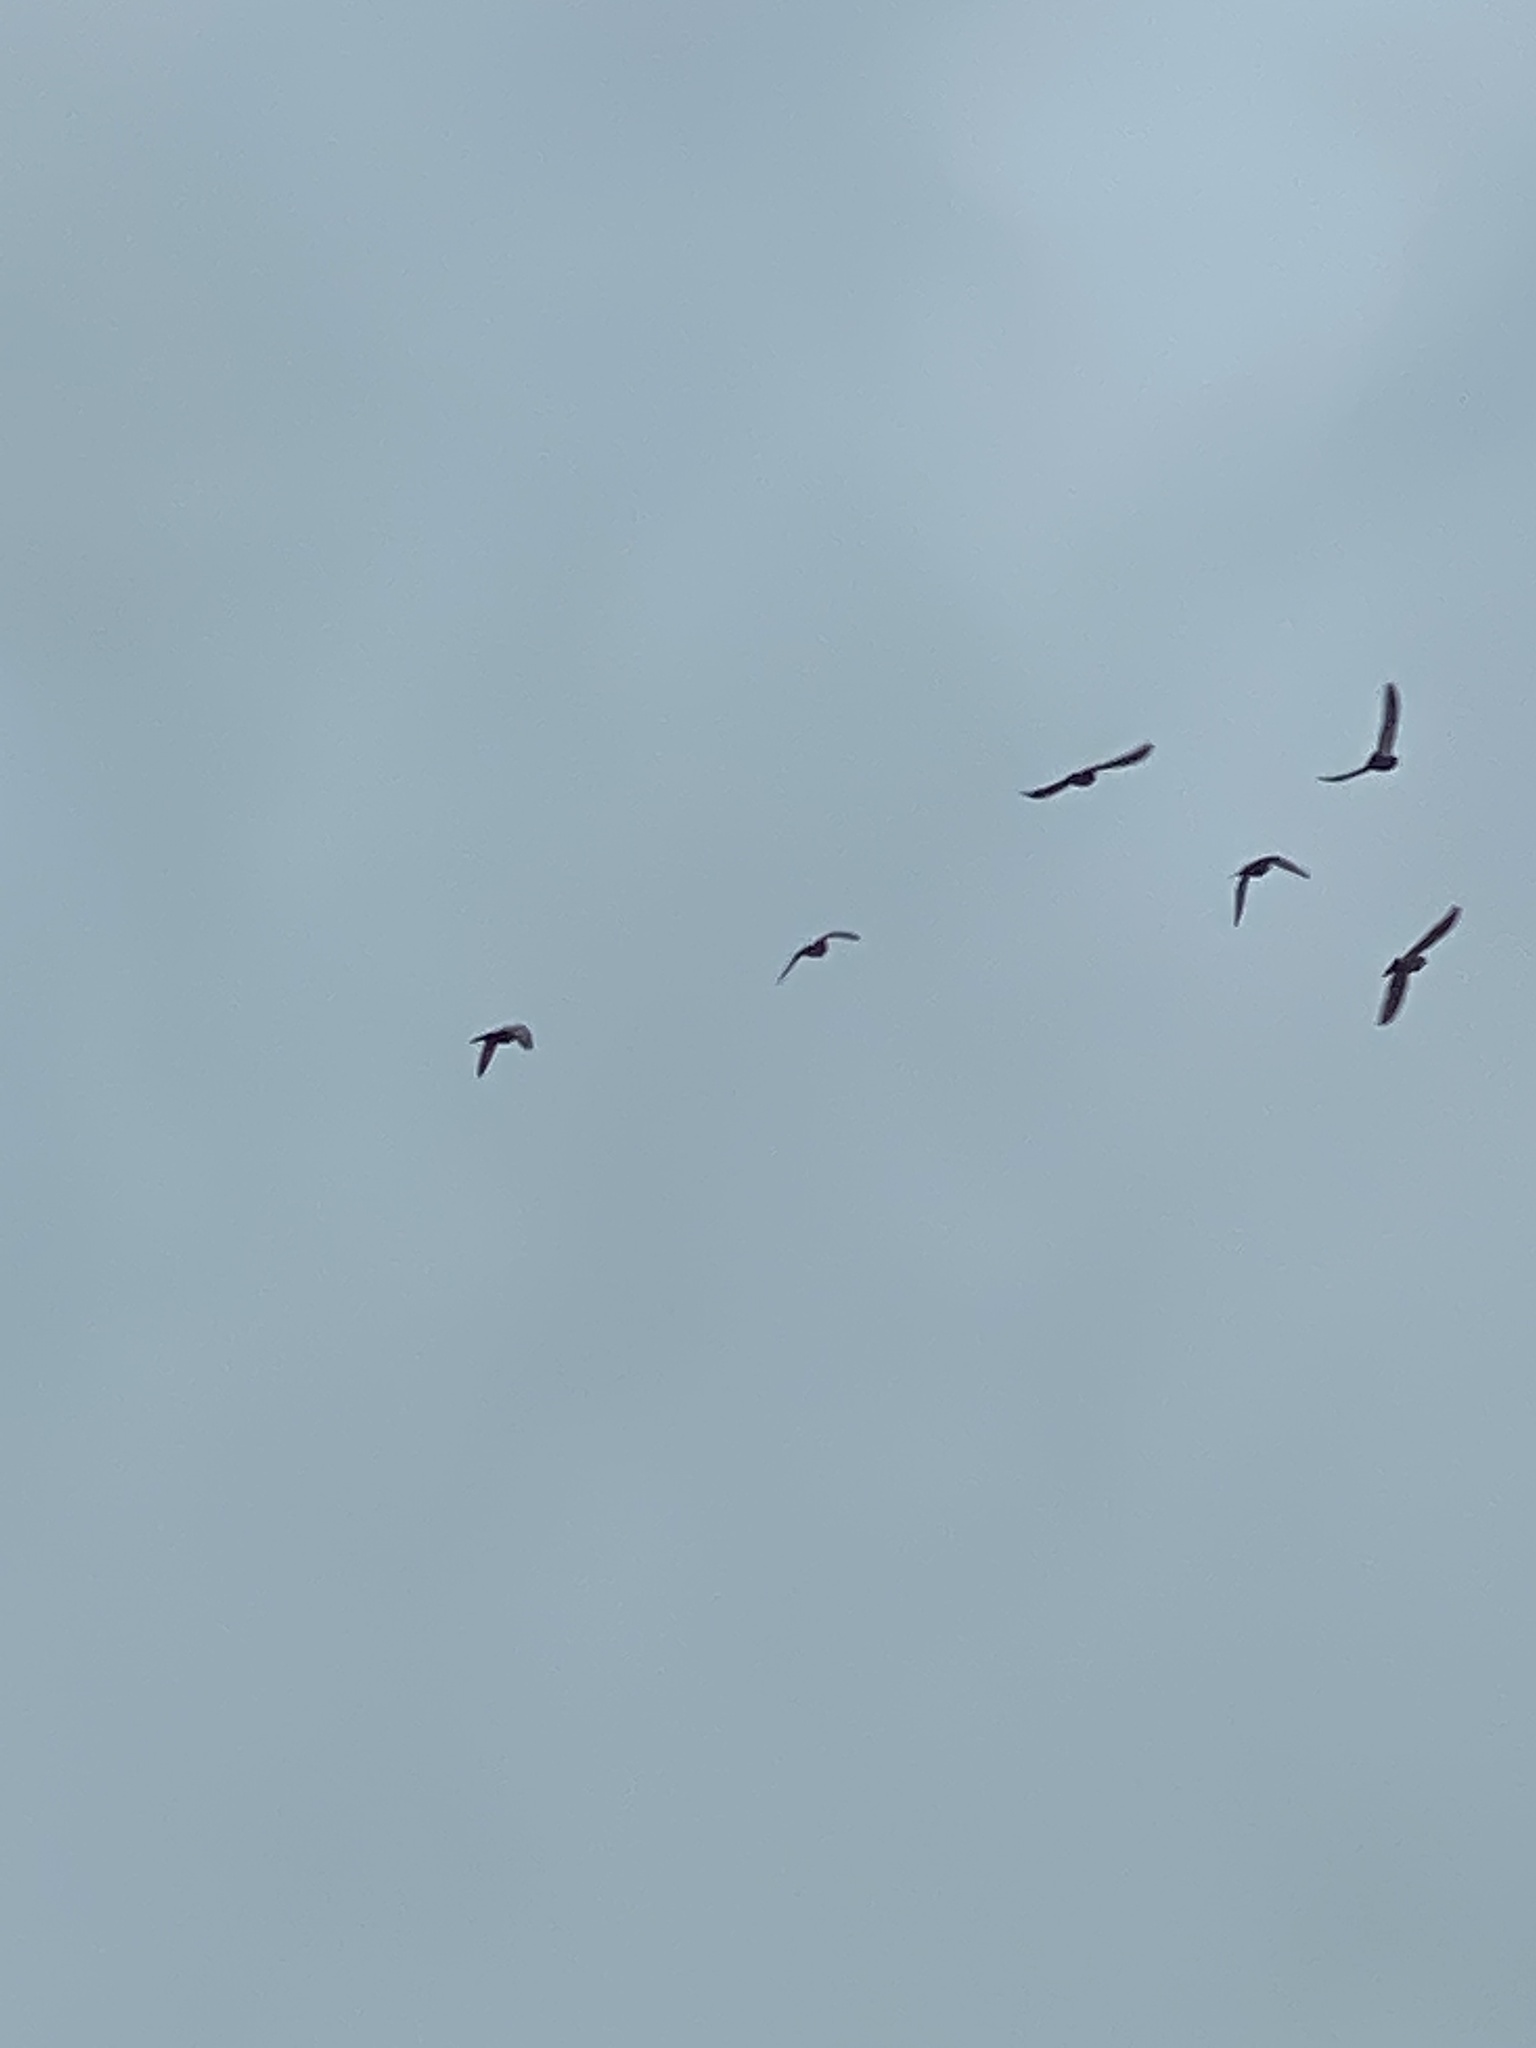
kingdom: Animalia
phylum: Chordata
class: Aves
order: Columbiformes
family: Columbidae
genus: Columba
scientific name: Columba livia
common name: Rock pigeon
